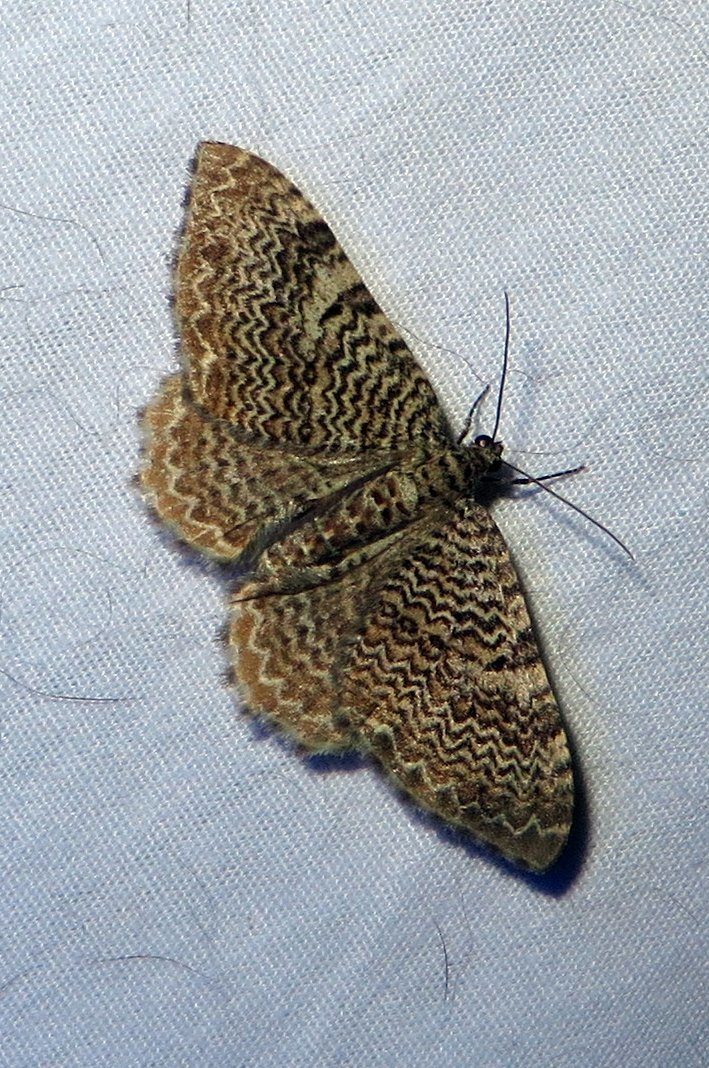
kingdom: Animalia
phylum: Arthropoda
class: Insecta
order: Lepidoptera
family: Geometridae
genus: Rheumaptera
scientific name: Rheumaptera prunivorata
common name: Cherry scallop shell moth
